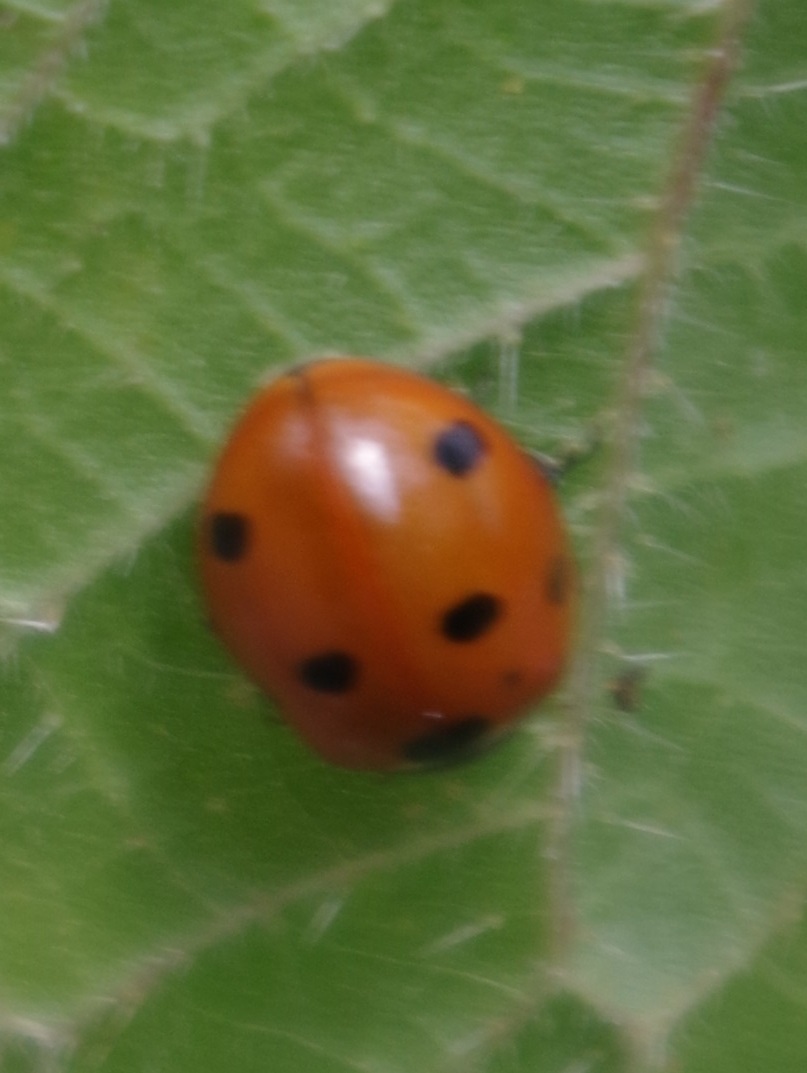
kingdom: Animalia
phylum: Arthropoda
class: Insecta
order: Coleoptera
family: Coccinellidae
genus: Coccinella
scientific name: Coccinella septempunctata
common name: Sevenspotted lady beetle
